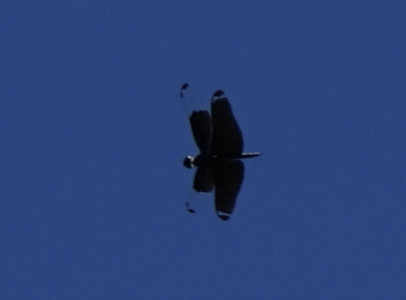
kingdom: Animalia
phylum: Arthropoda
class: Insecta
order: Odonata
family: Libellulidae
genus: Rhyothemis
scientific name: Rhyothemis fuliginosa
